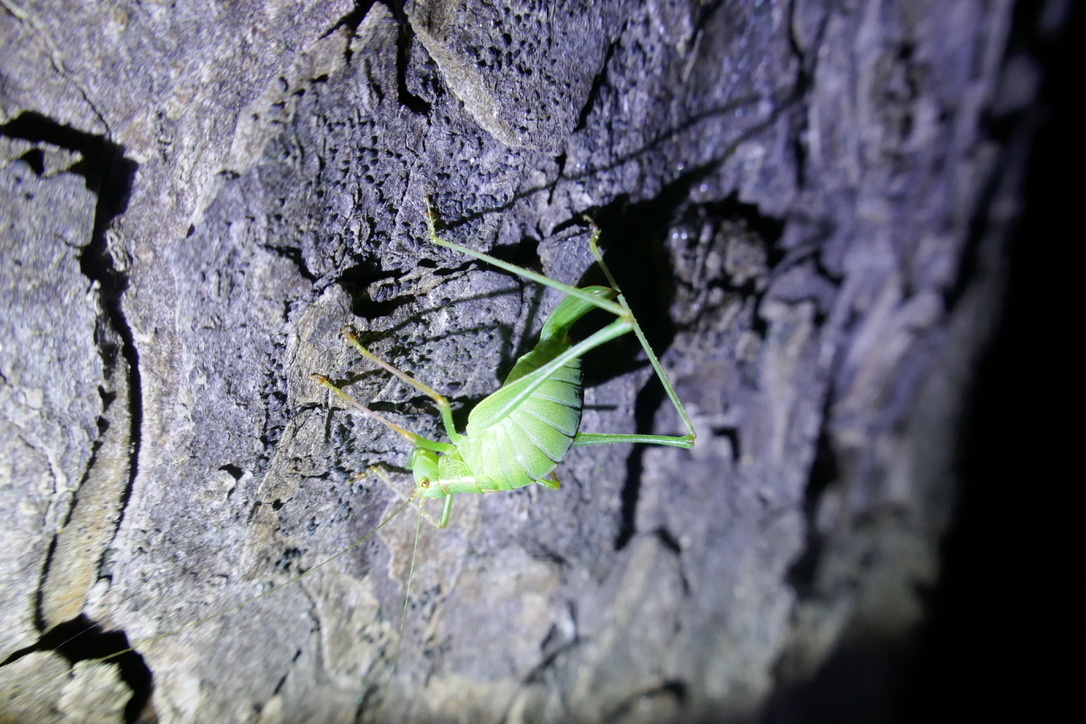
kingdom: Animalia
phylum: Arthropoda
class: Insecta
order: Orthoptera
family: Tettigoniidae
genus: Leptophyes
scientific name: Leptophyes punctatissima
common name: Speckled bush-cricket
